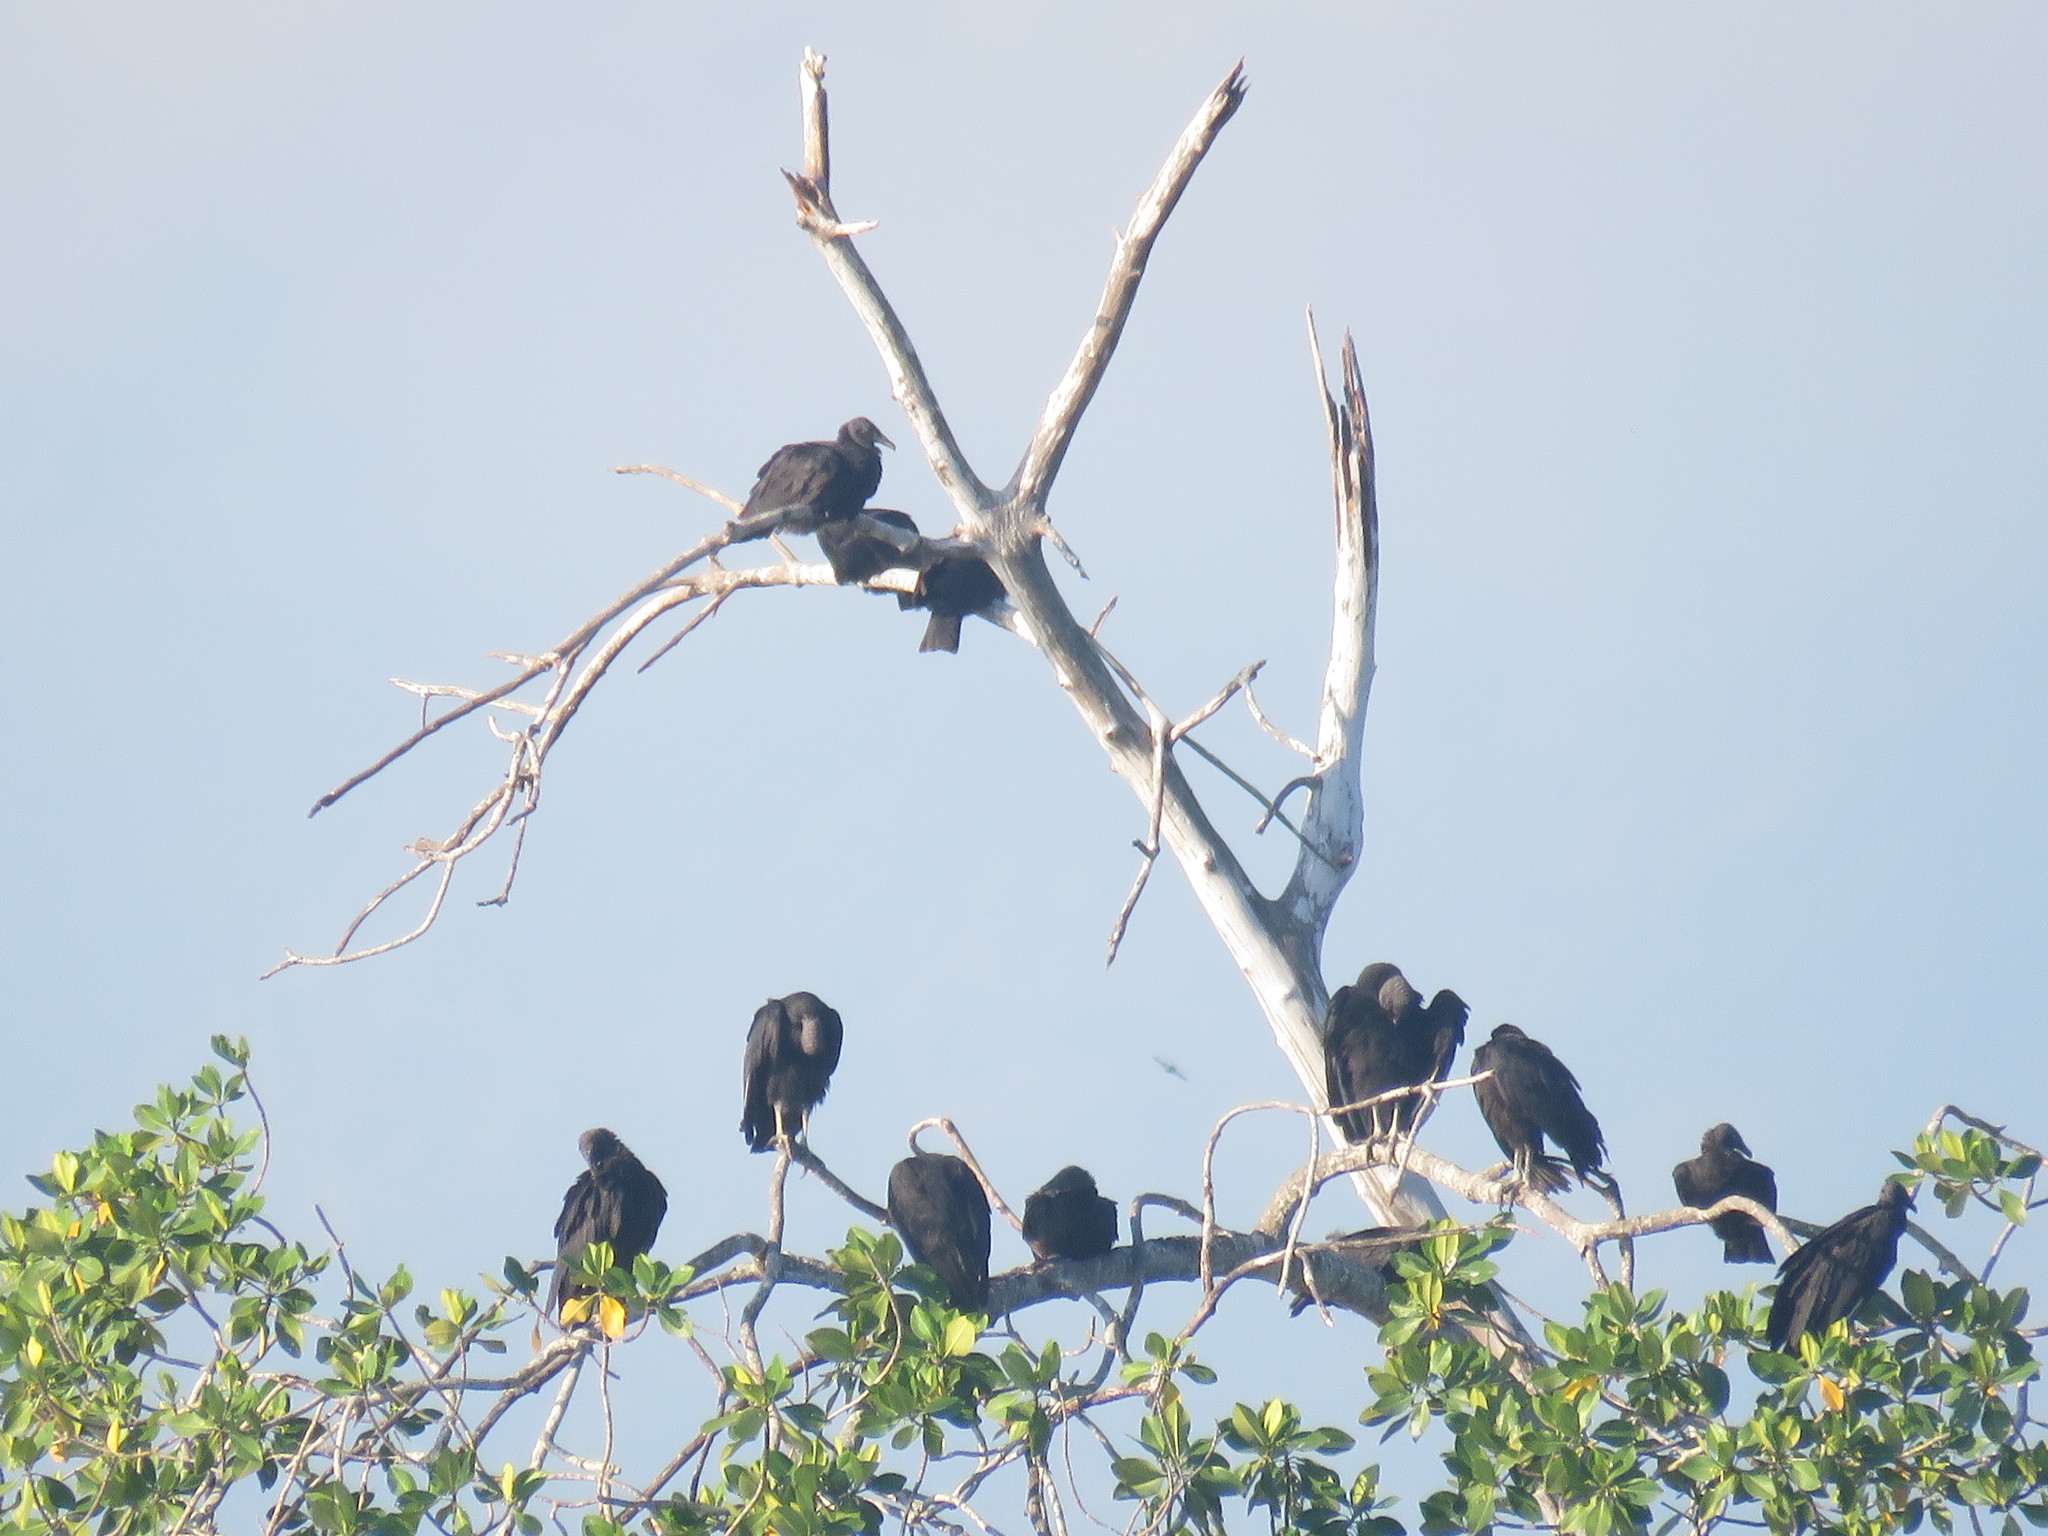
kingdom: Animalia
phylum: Chordata
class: Aves
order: Accipitriformes
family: Cathartidae
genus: Coragyps
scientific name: Coragyps atratus
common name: Black vulture
